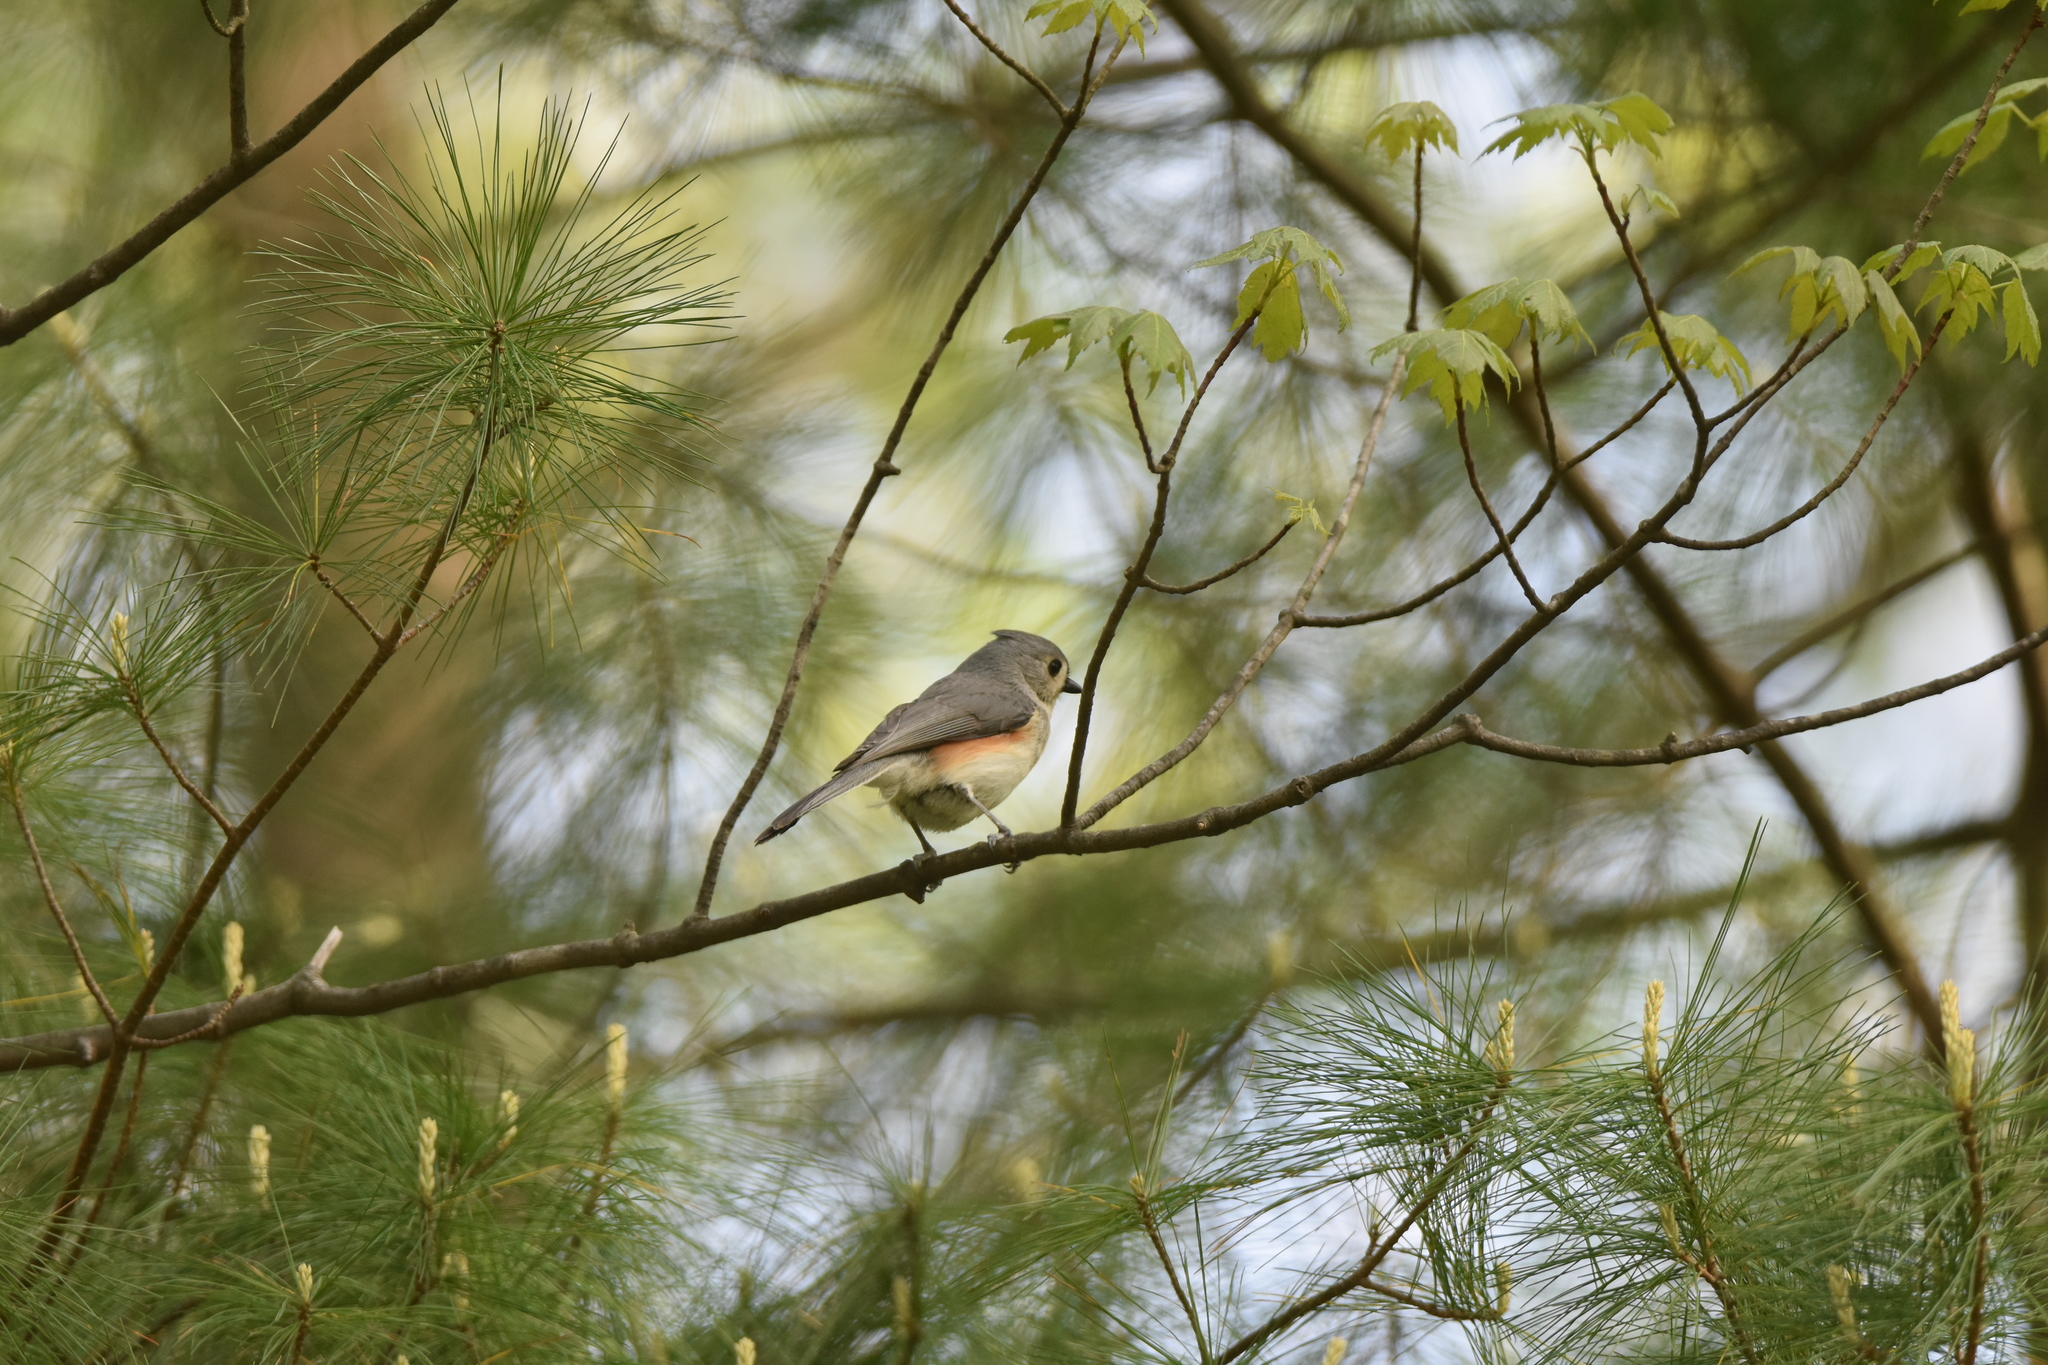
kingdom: Animalia
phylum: Chordata
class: Aves
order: Passeriformes
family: Paridae
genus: Baeolophus
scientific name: Baeolophus bicolor
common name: Tufted titmouse
